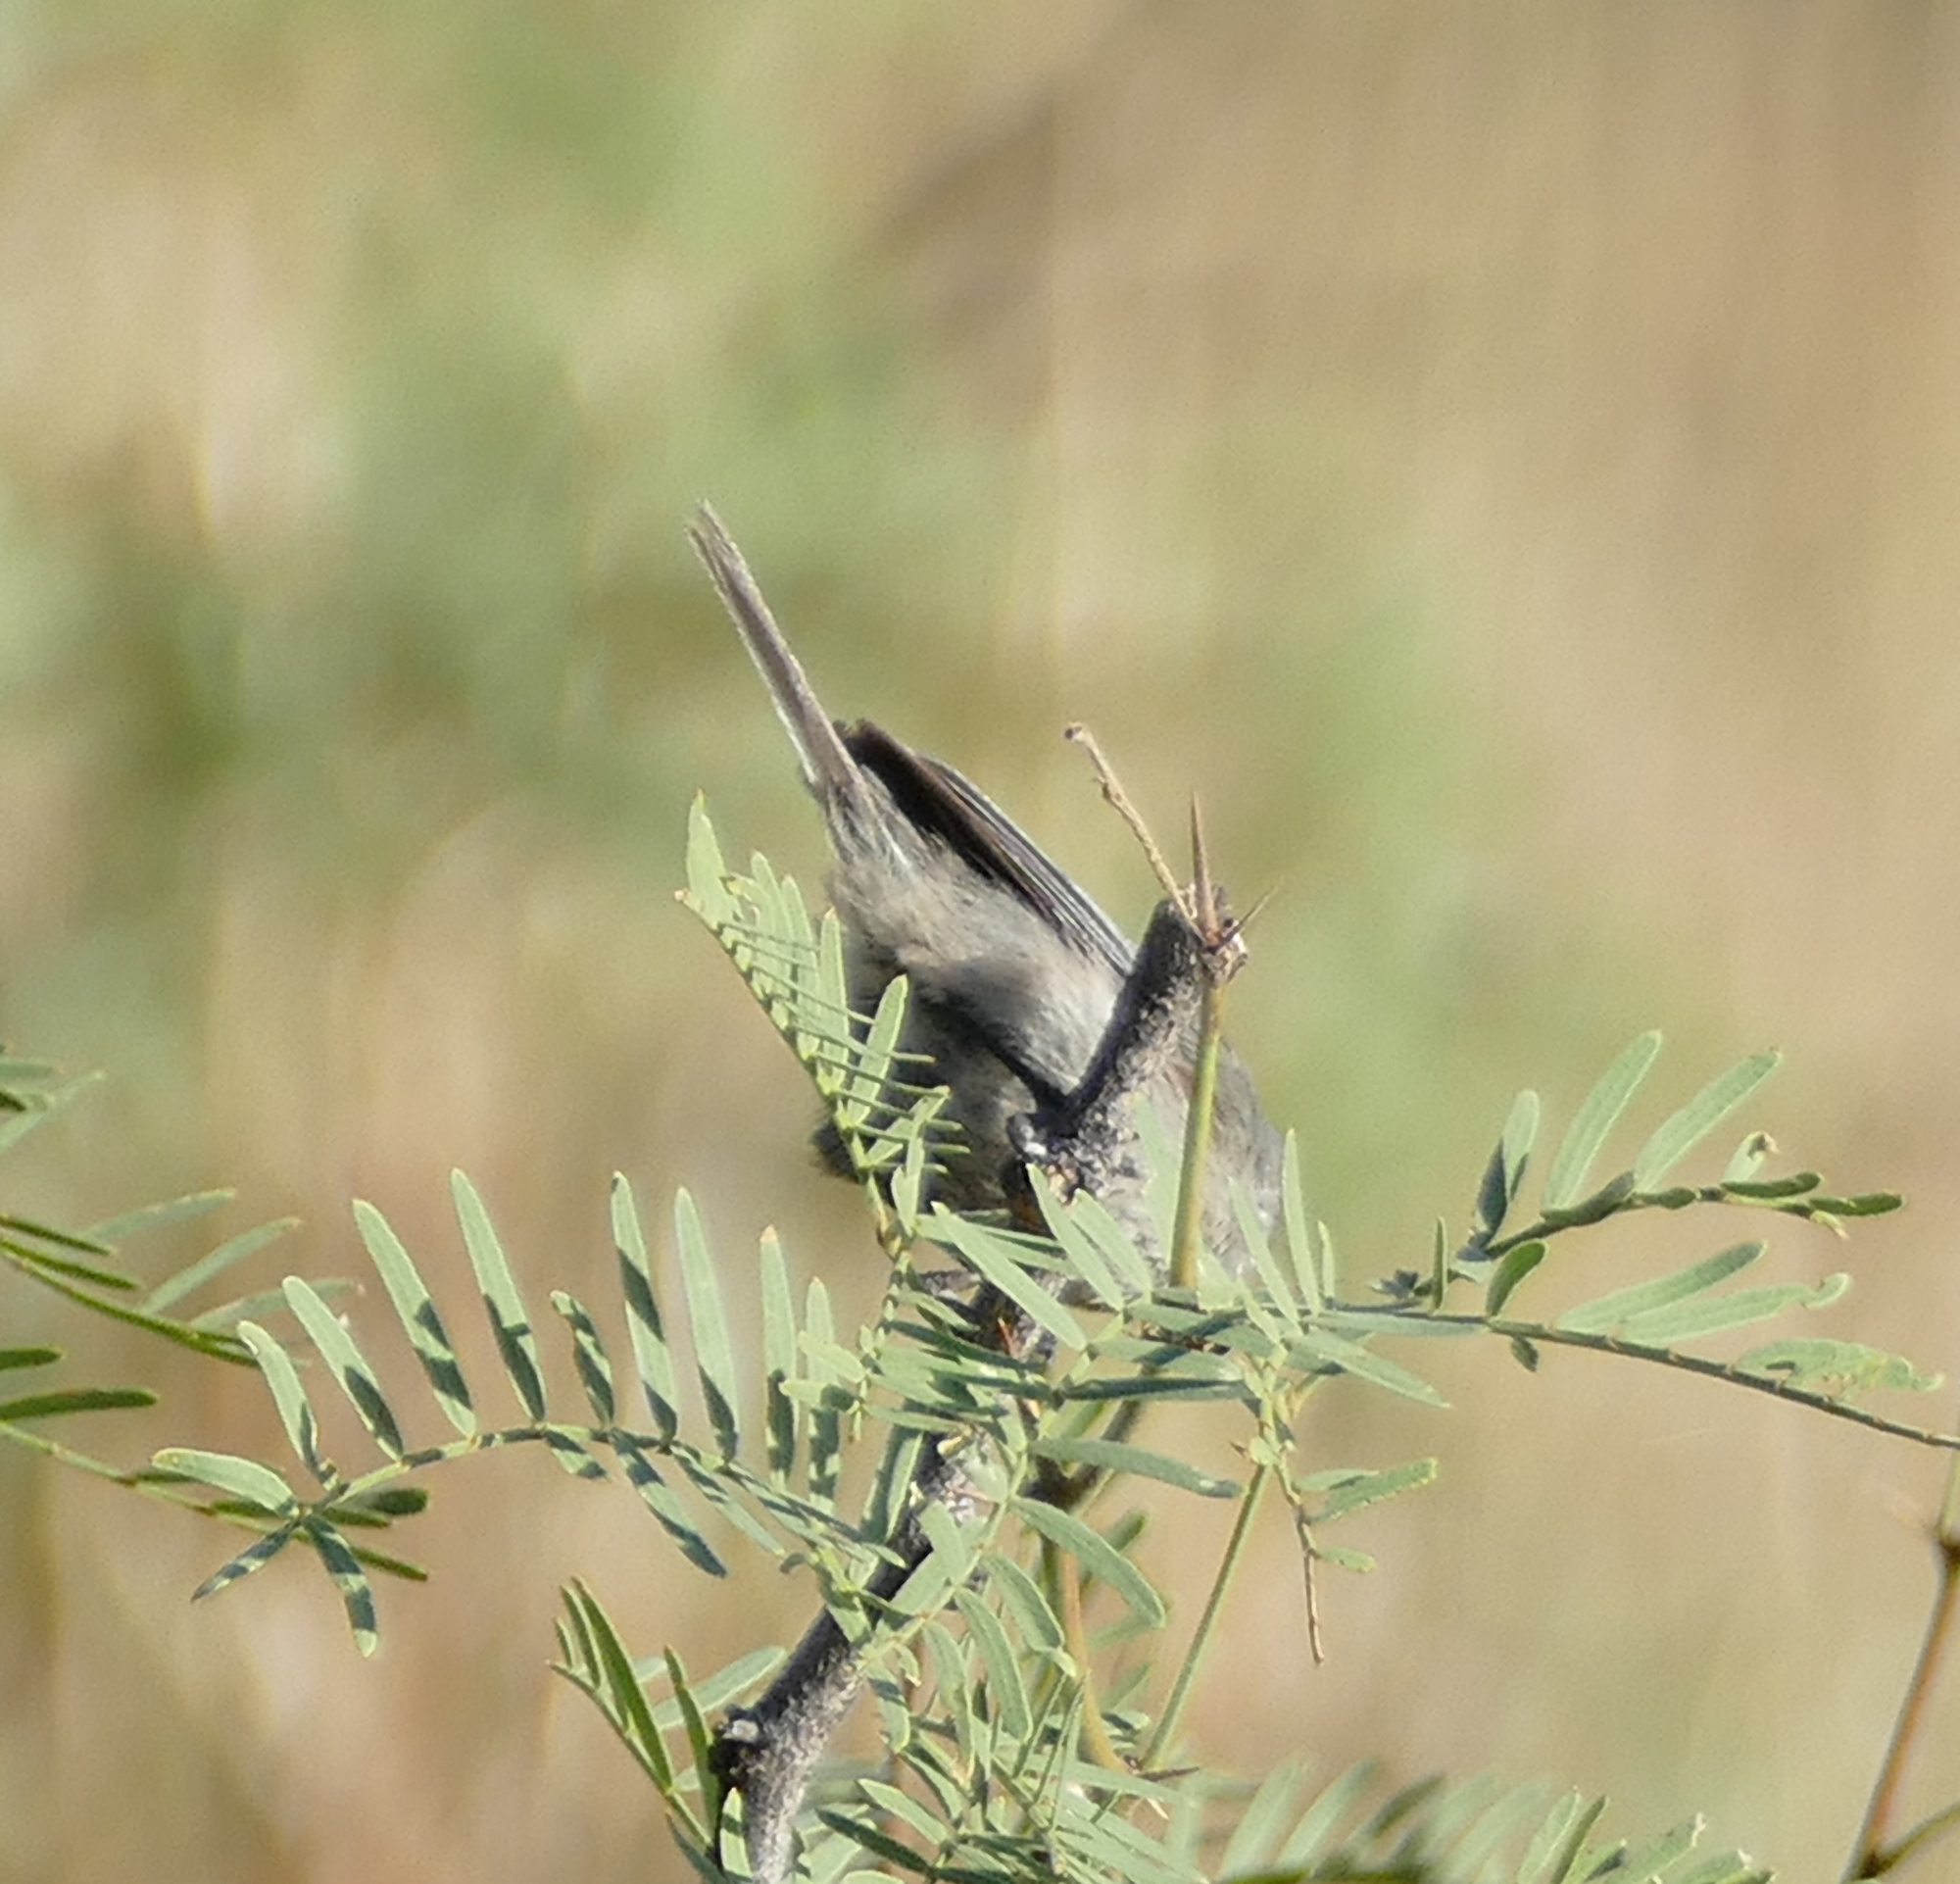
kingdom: Animalia
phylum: Chordata
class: Aves
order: Passeriformes
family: Aegithalidae
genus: Psaltriparus
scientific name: Psaltriparus minimus
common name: American bushtit
